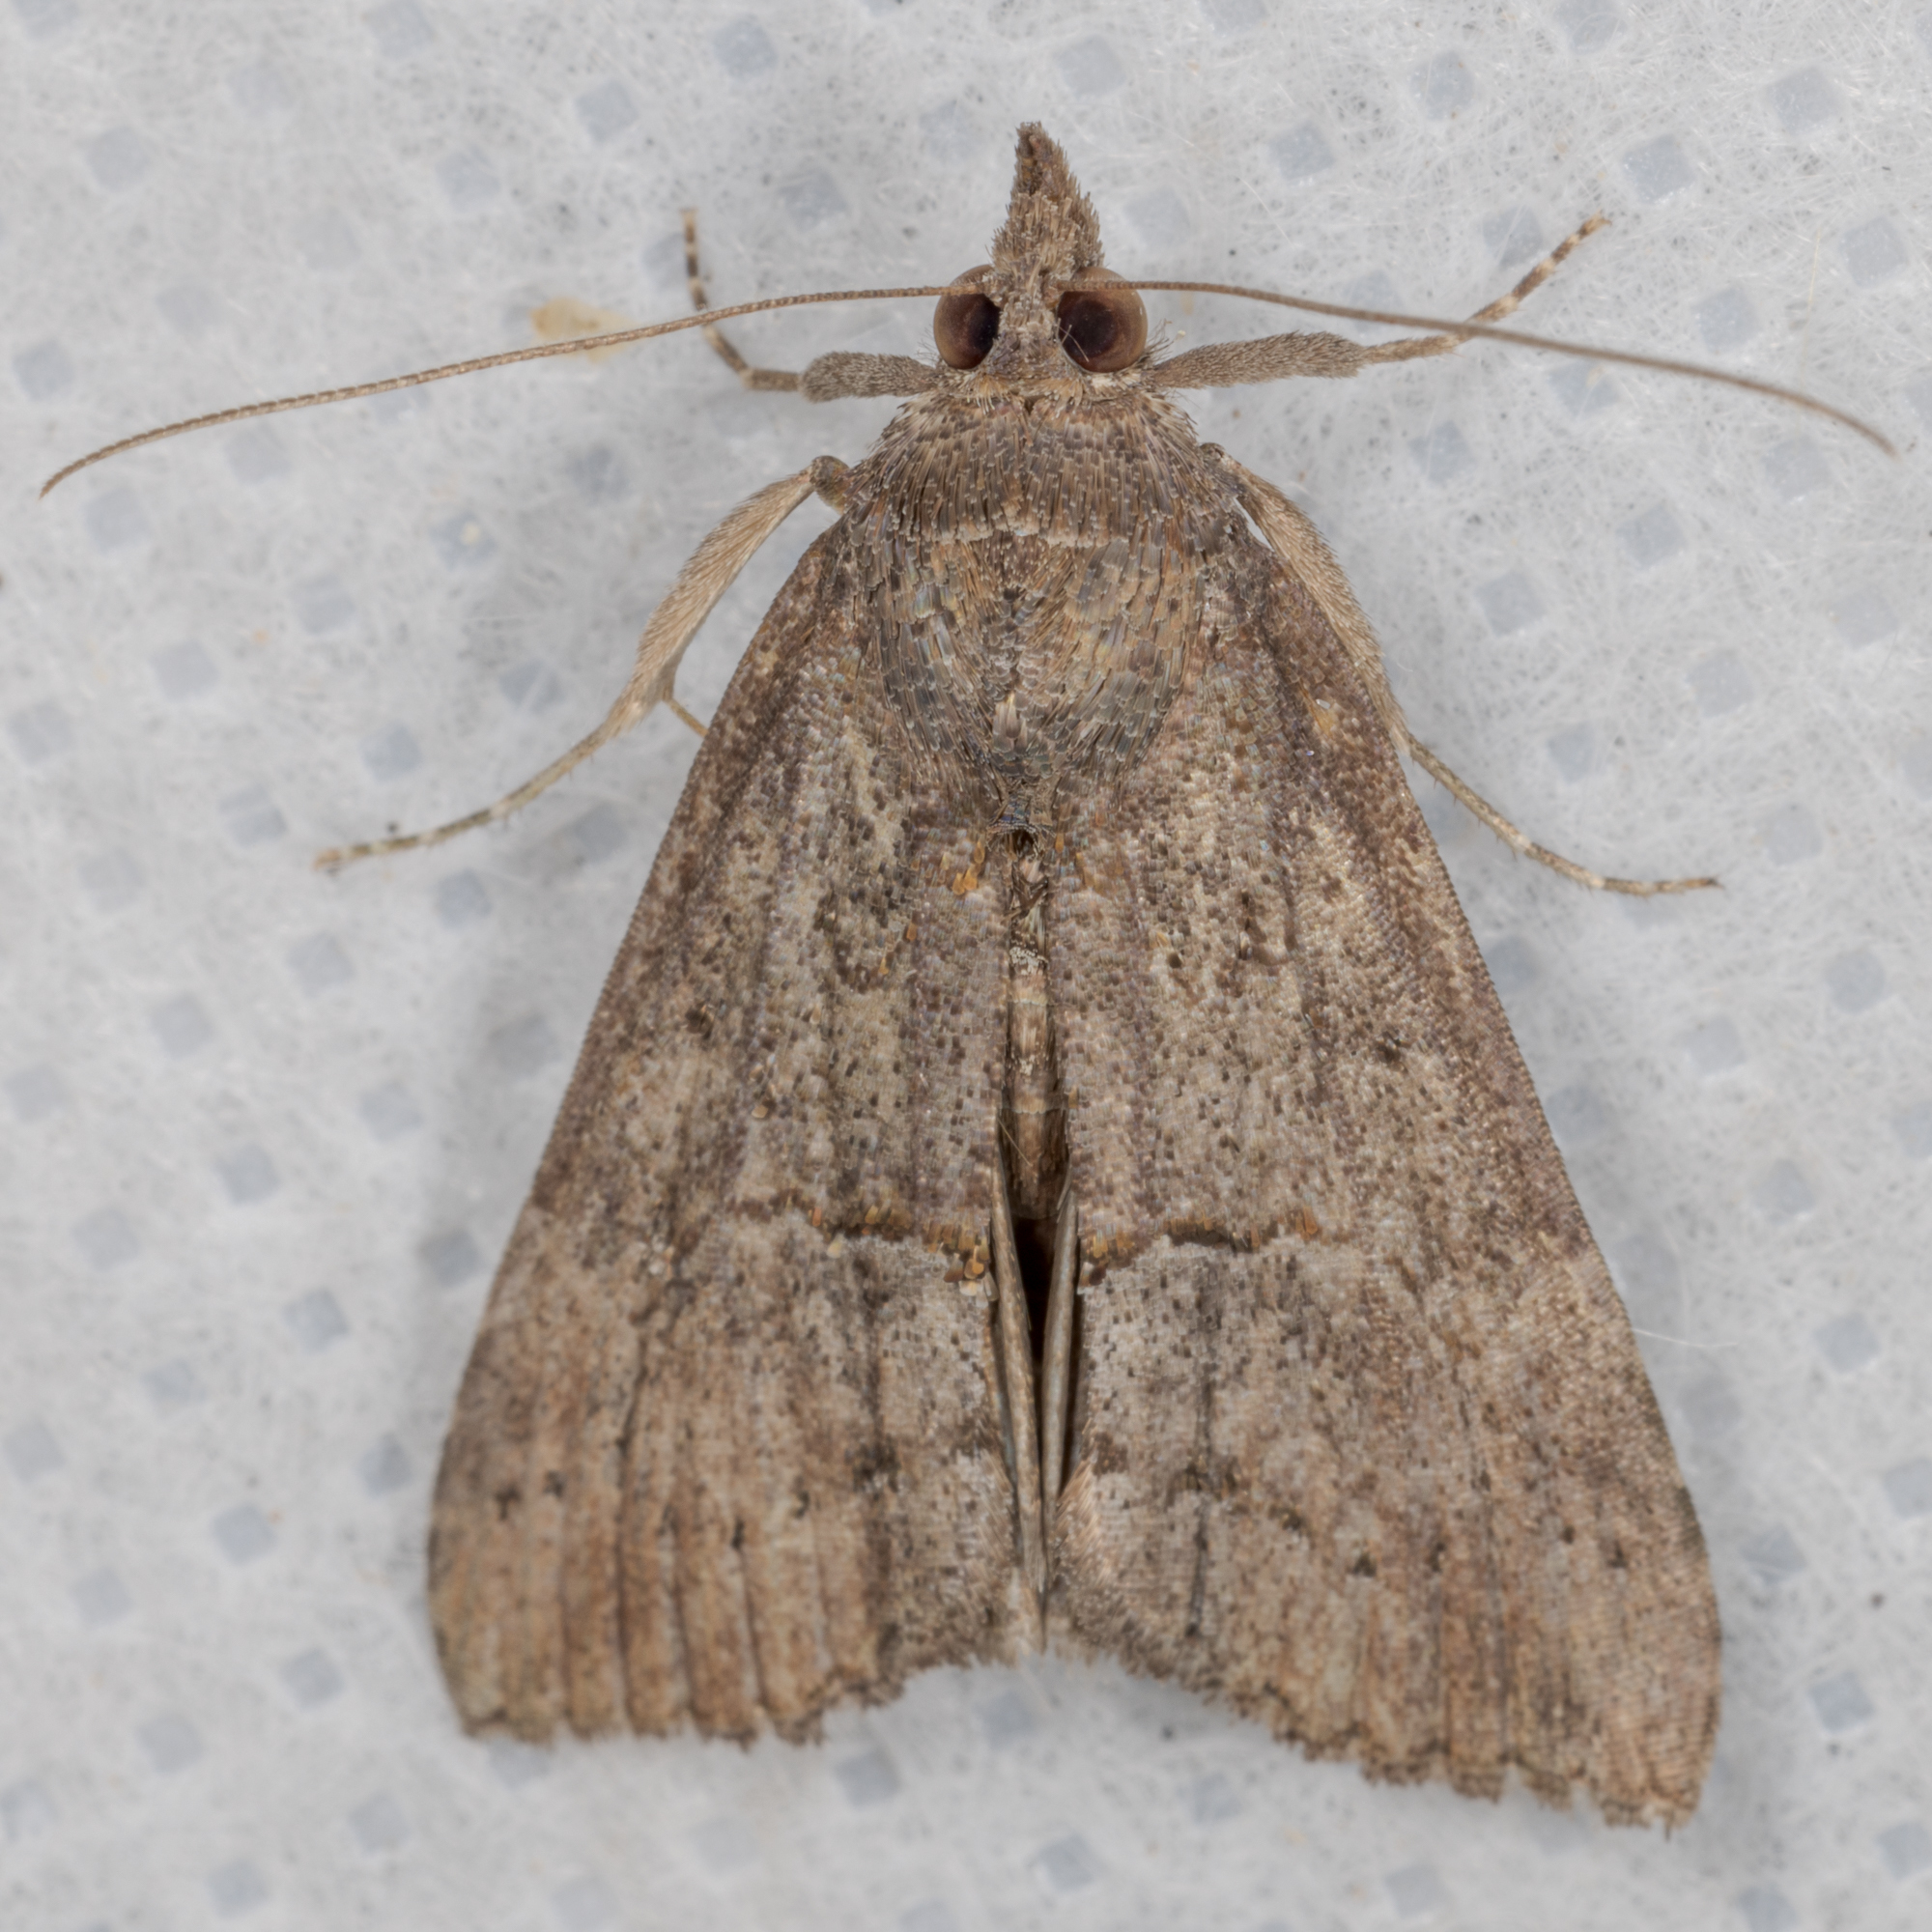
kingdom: Animalia
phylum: Arthropoda
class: Insecta
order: Lepidoptera
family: Erebidae
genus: Hypena
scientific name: Hypena scabra
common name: Green cloverworm
